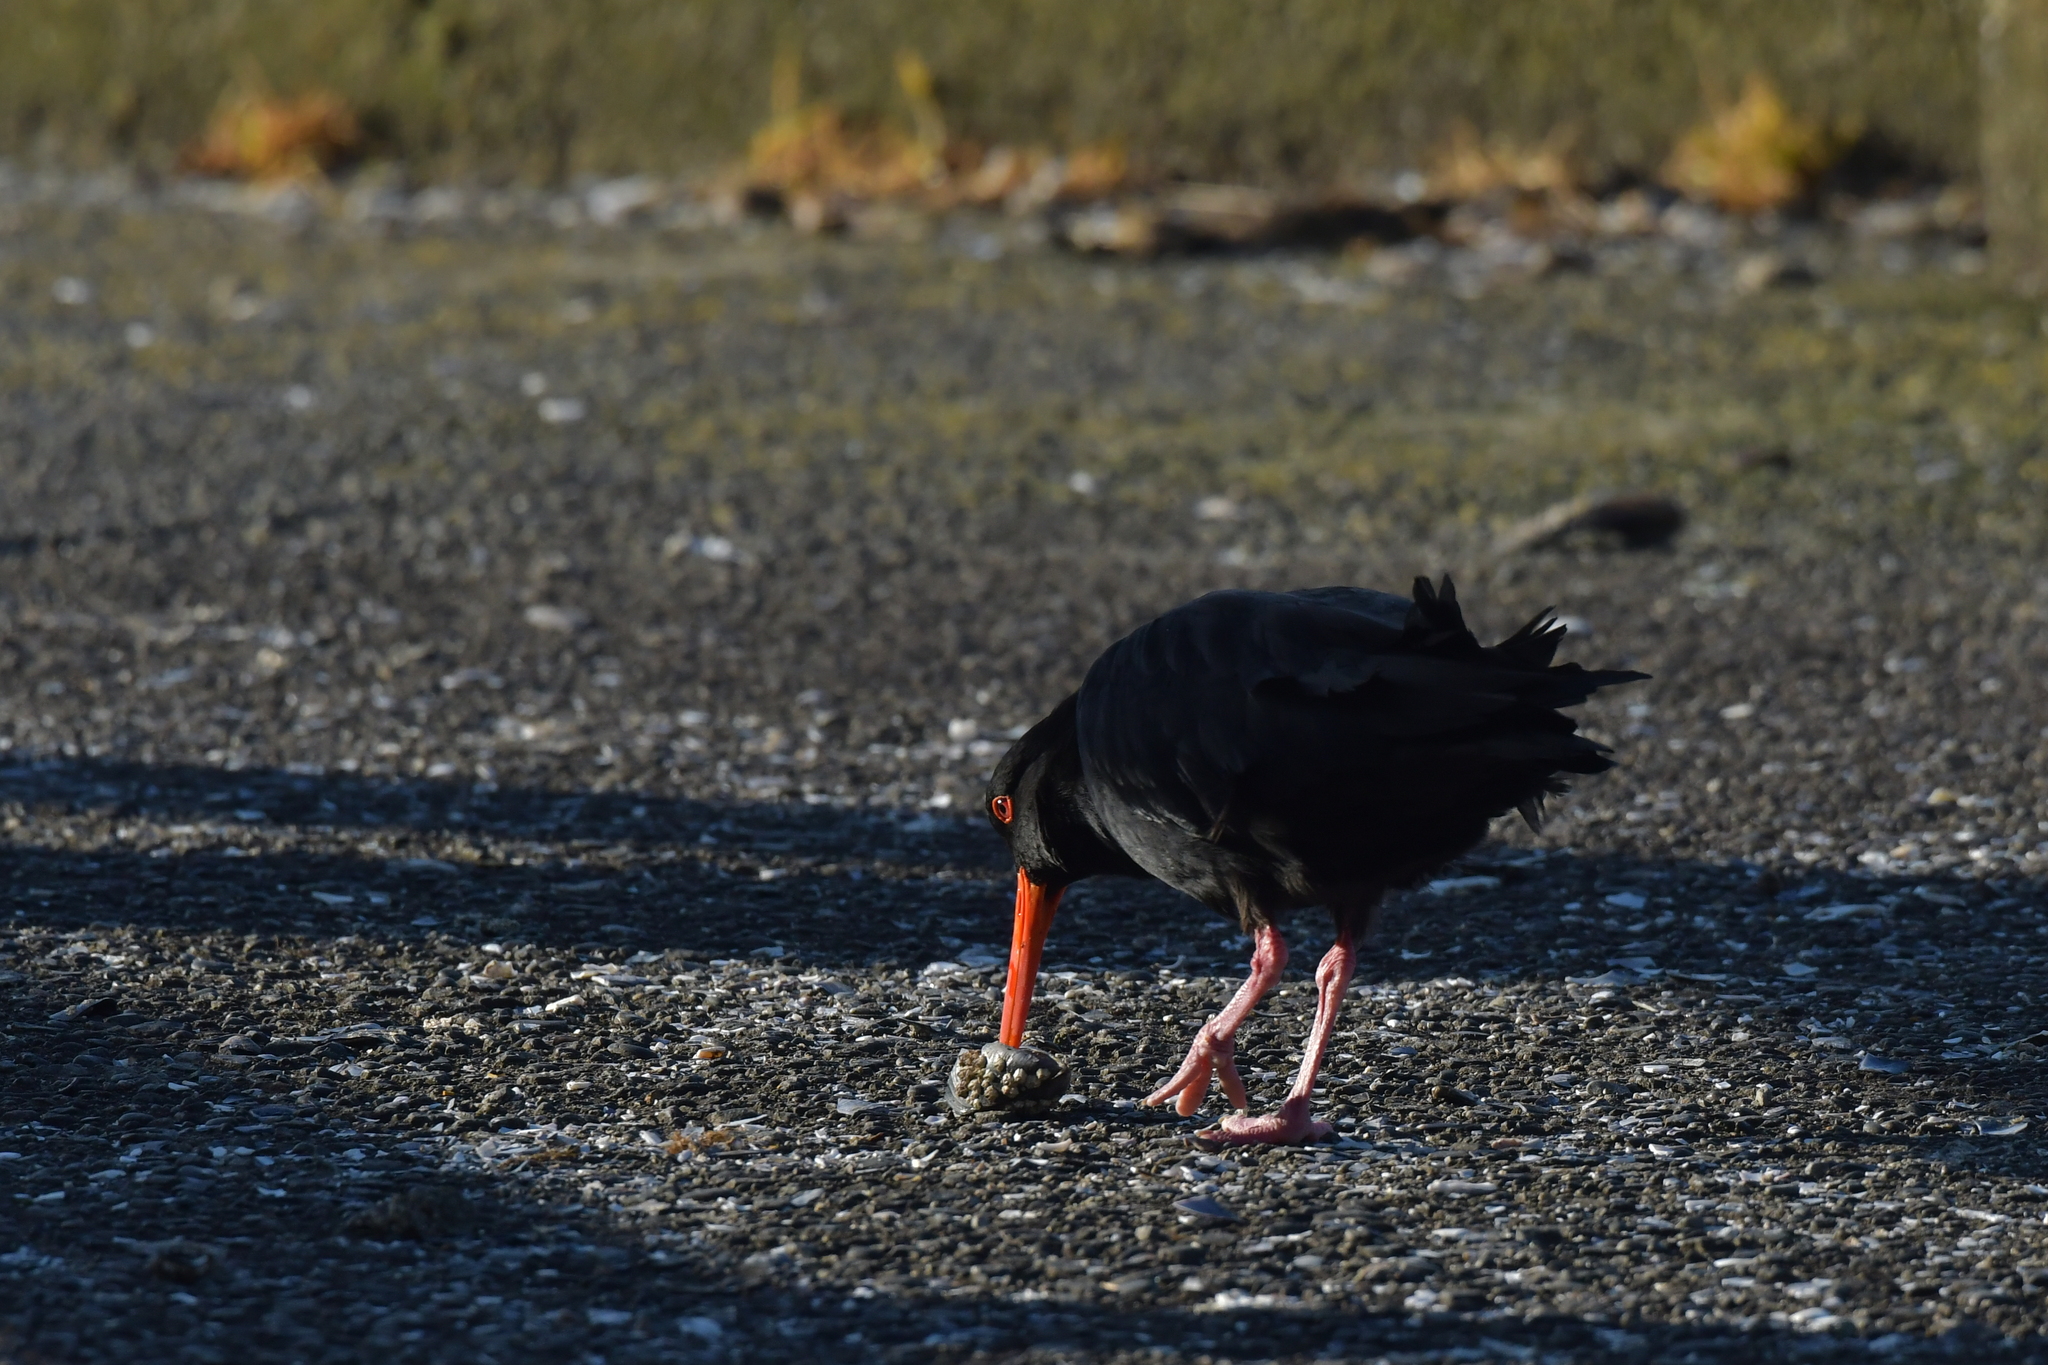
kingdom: Animalia
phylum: Chordata
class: Aves
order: Charadriiformes
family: Haematopodidae
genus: Haematopus
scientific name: Haematopus unicolor
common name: Variable oystercatcher
